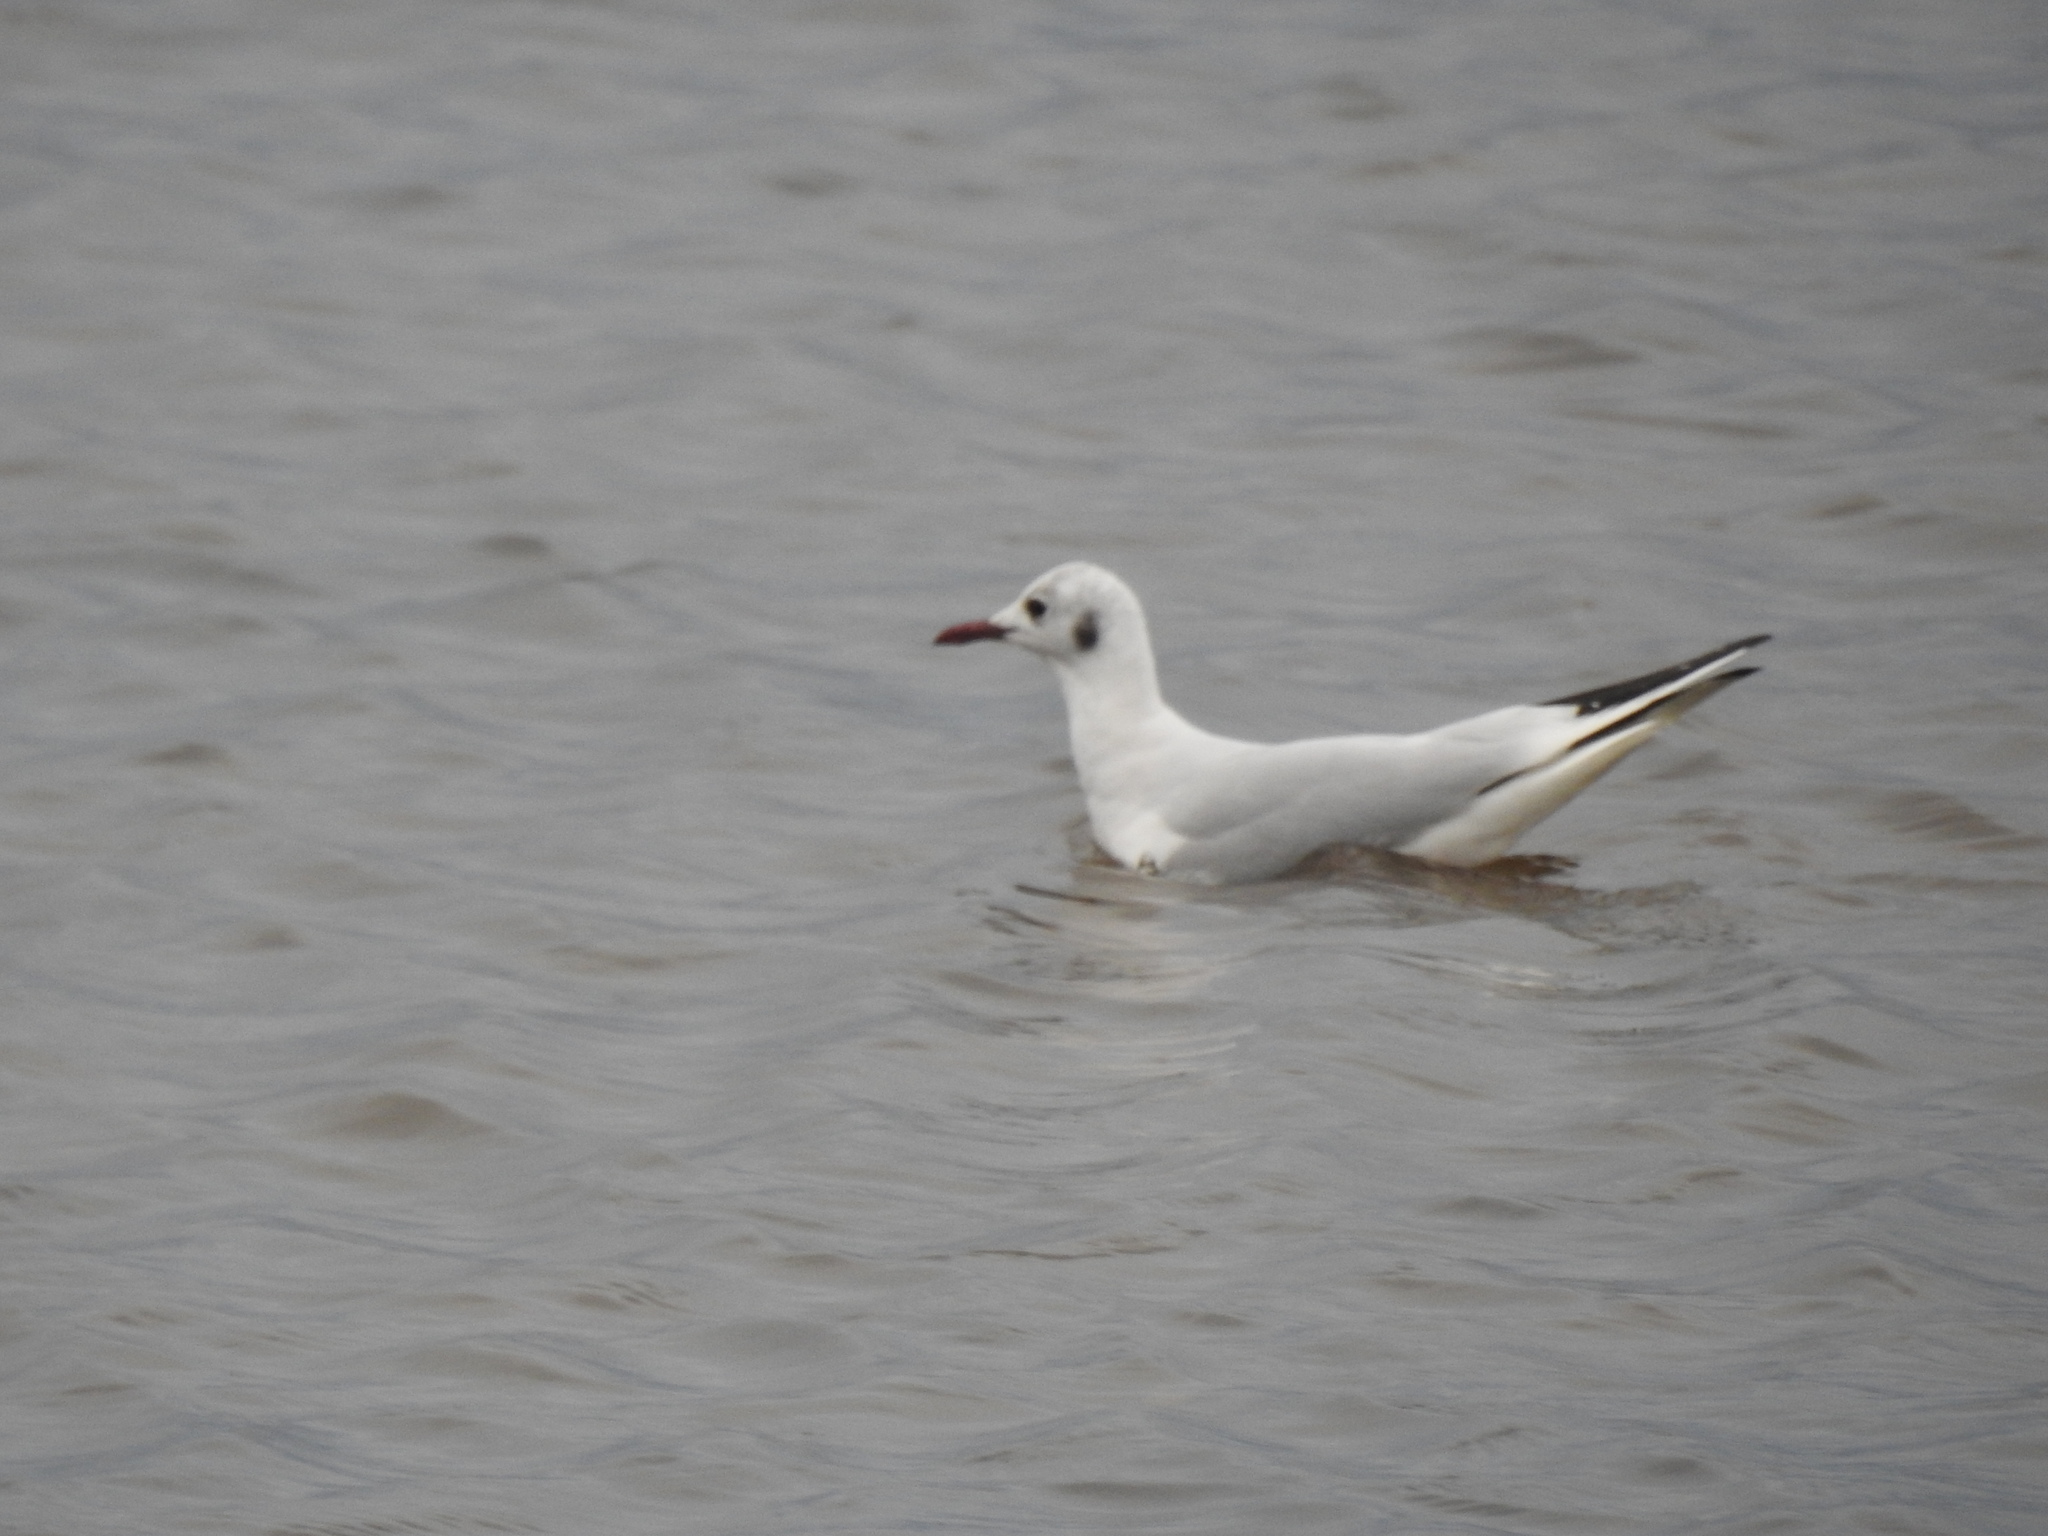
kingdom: Animalia
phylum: Chordata
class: Aves
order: Charadriiformes
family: Laridae
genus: Chroicocephalus
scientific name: Chroicocephalus ridibundus
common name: Black-headed gull
